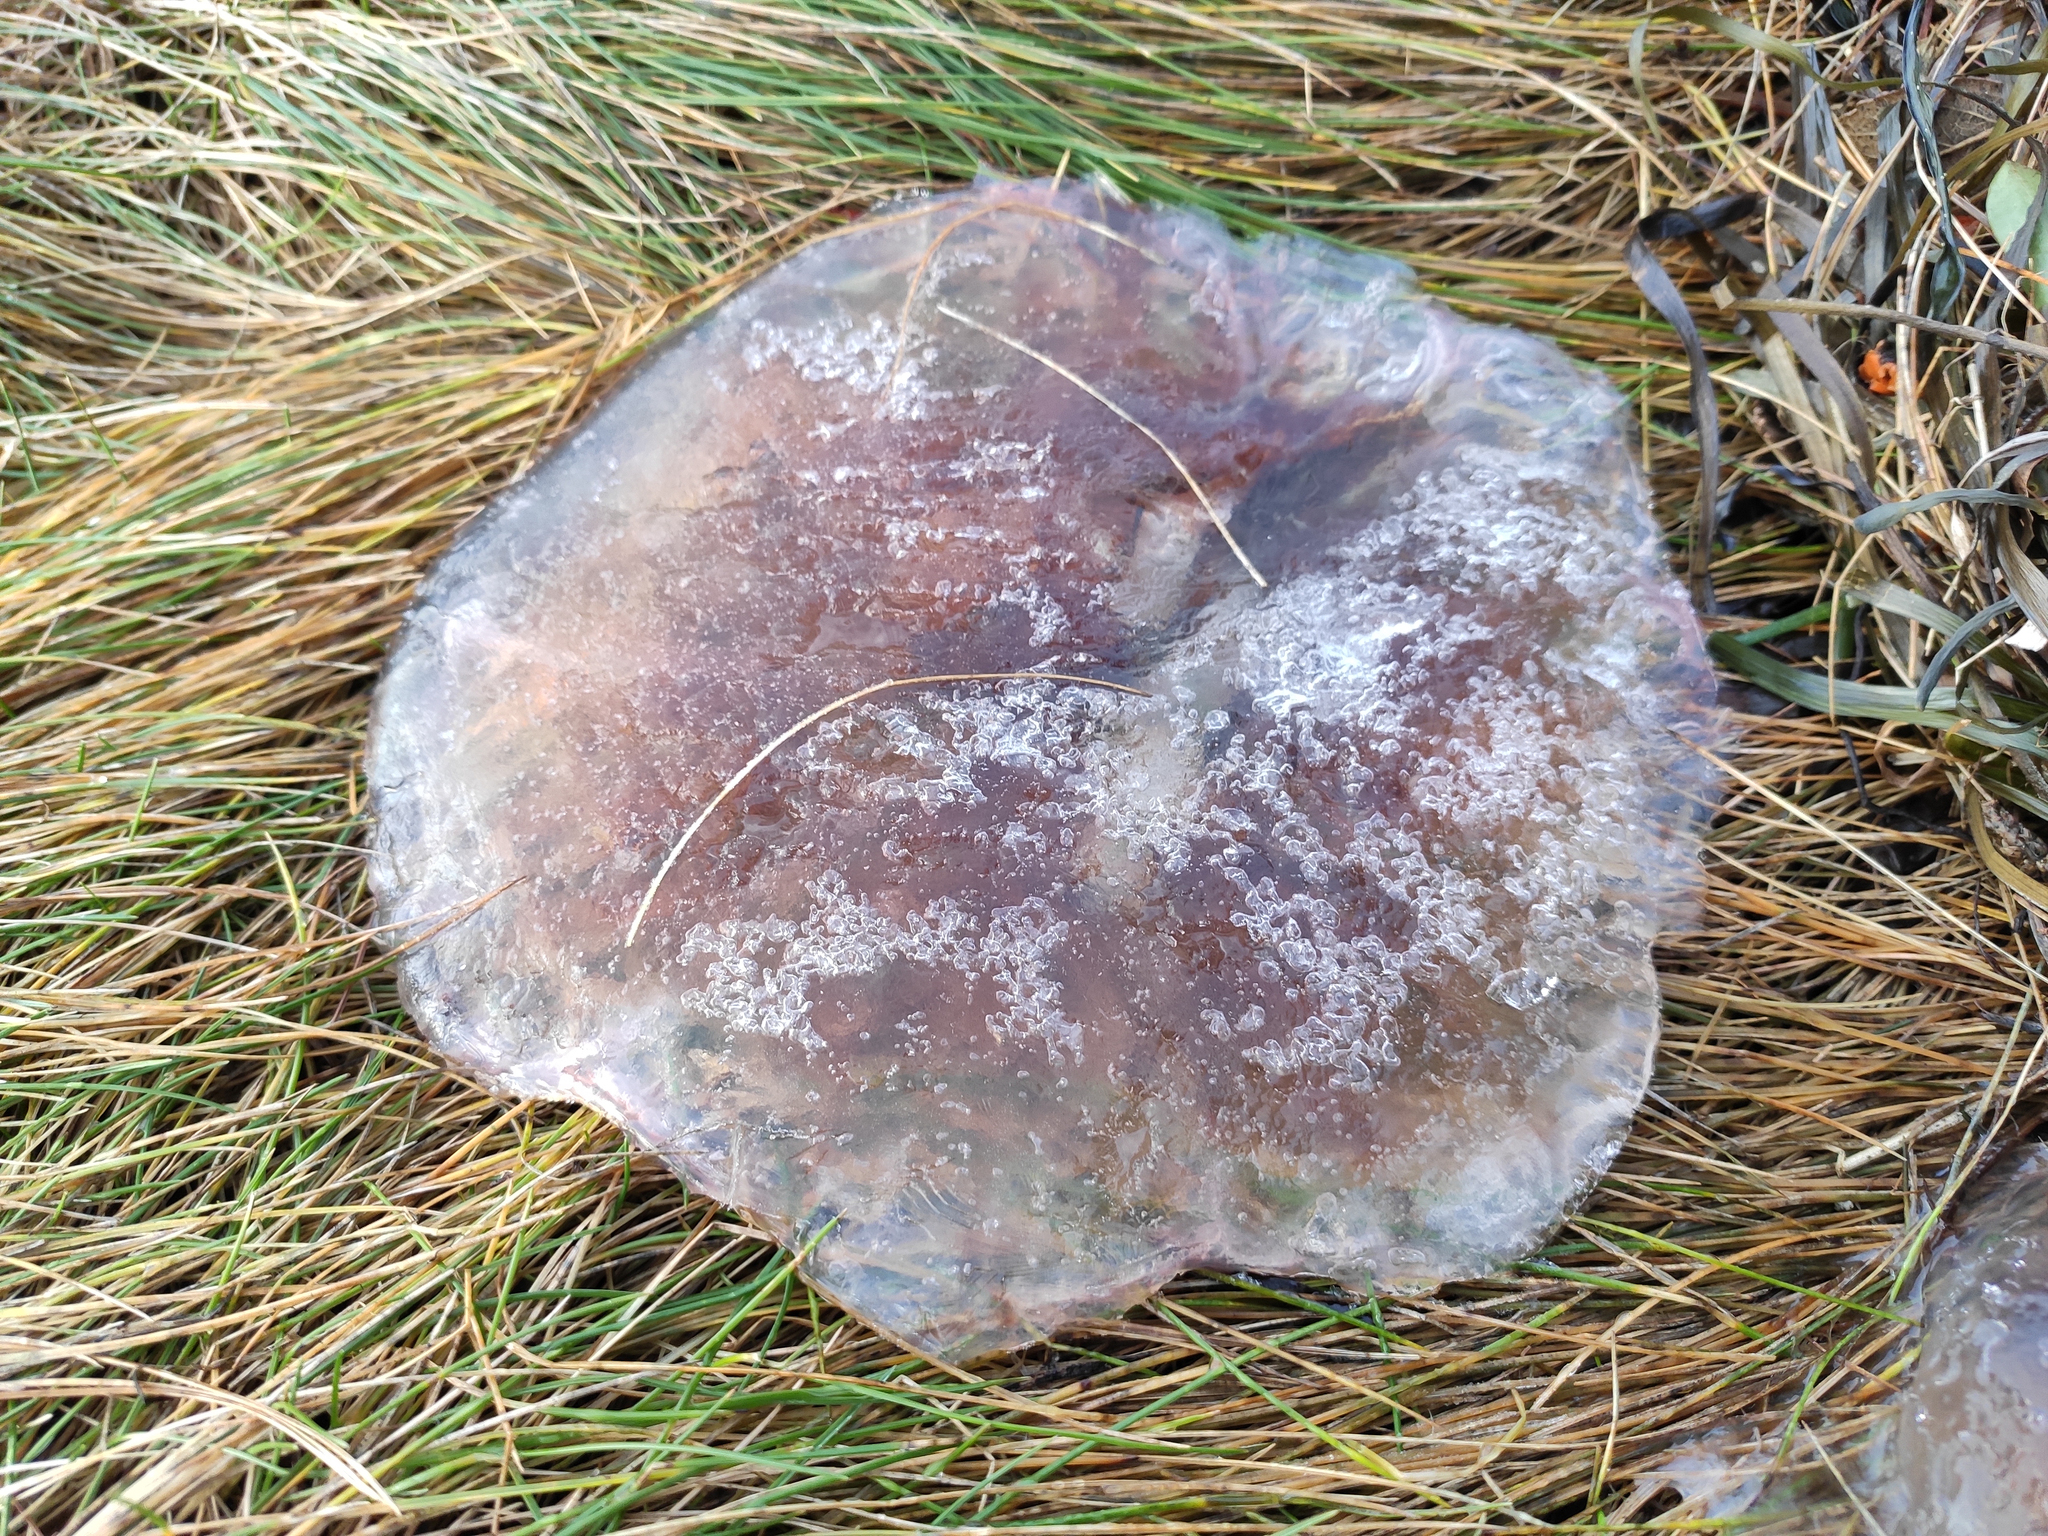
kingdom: Animalia
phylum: Cnidaria
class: Scyphozoa
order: Semaeostomeae
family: Cyaneidae
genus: Cyanea
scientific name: Cyanea capillata
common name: Lion's mane jellyfish
